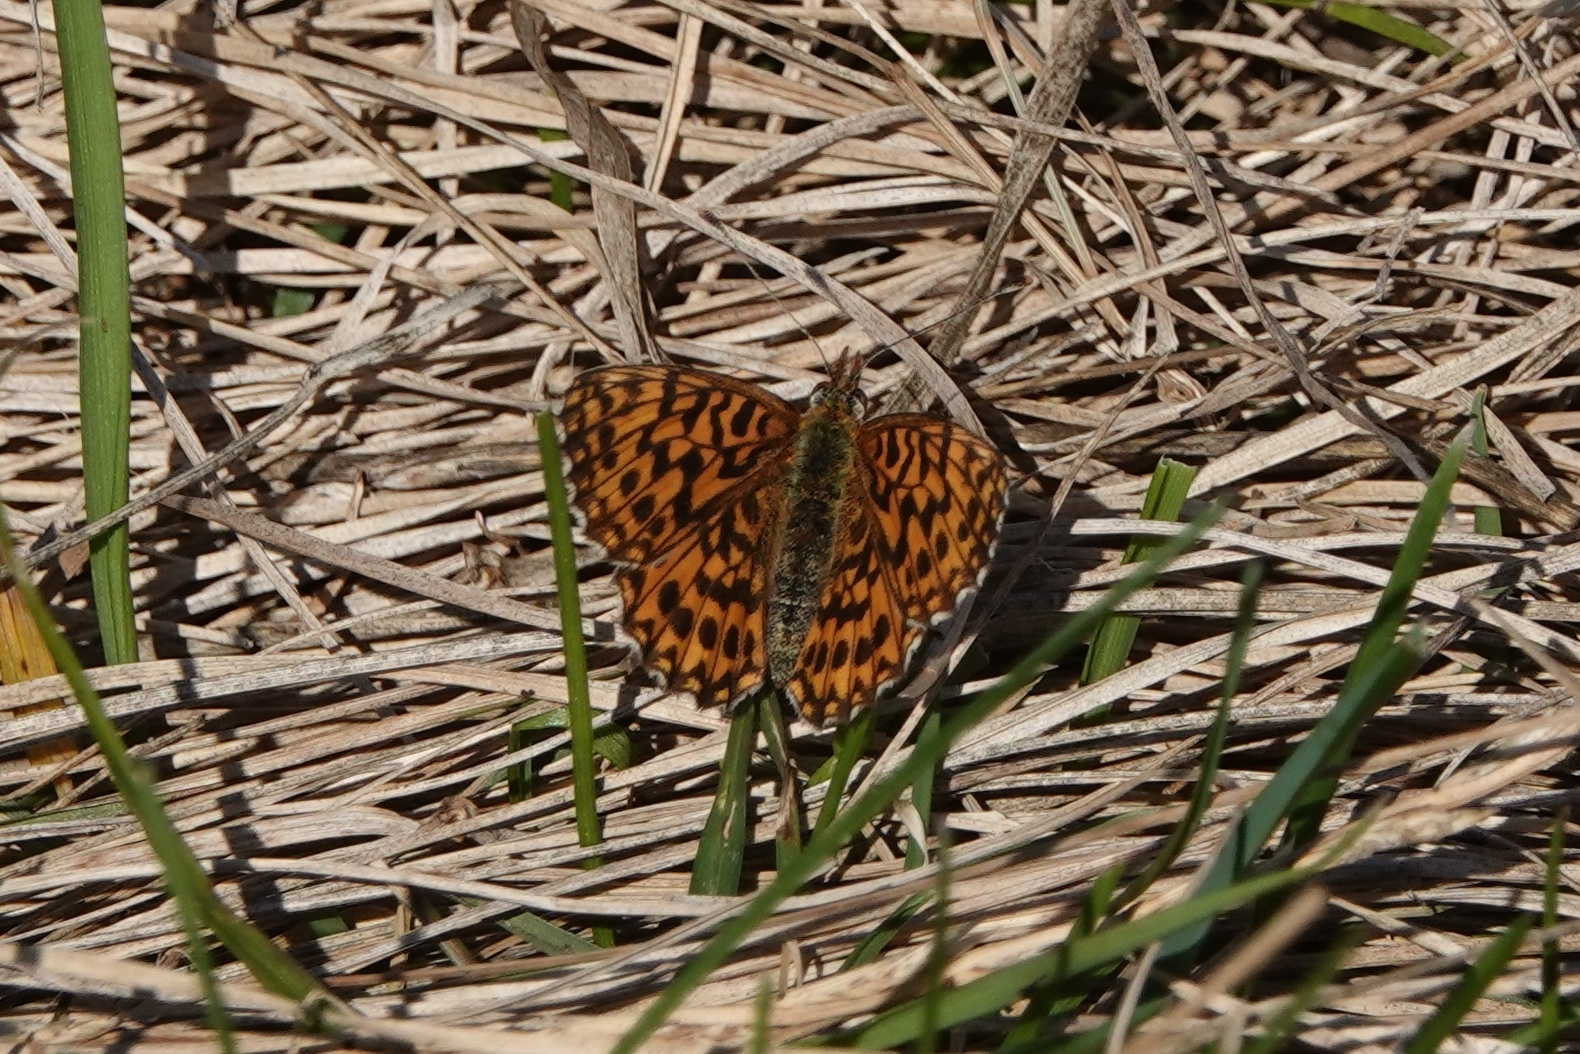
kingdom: Animalia
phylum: Arthropoda
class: Insecta
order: Lepidoptera
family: Nymphalidae
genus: Boloria
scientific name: Boloria dia
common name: Weaver's fritillary
